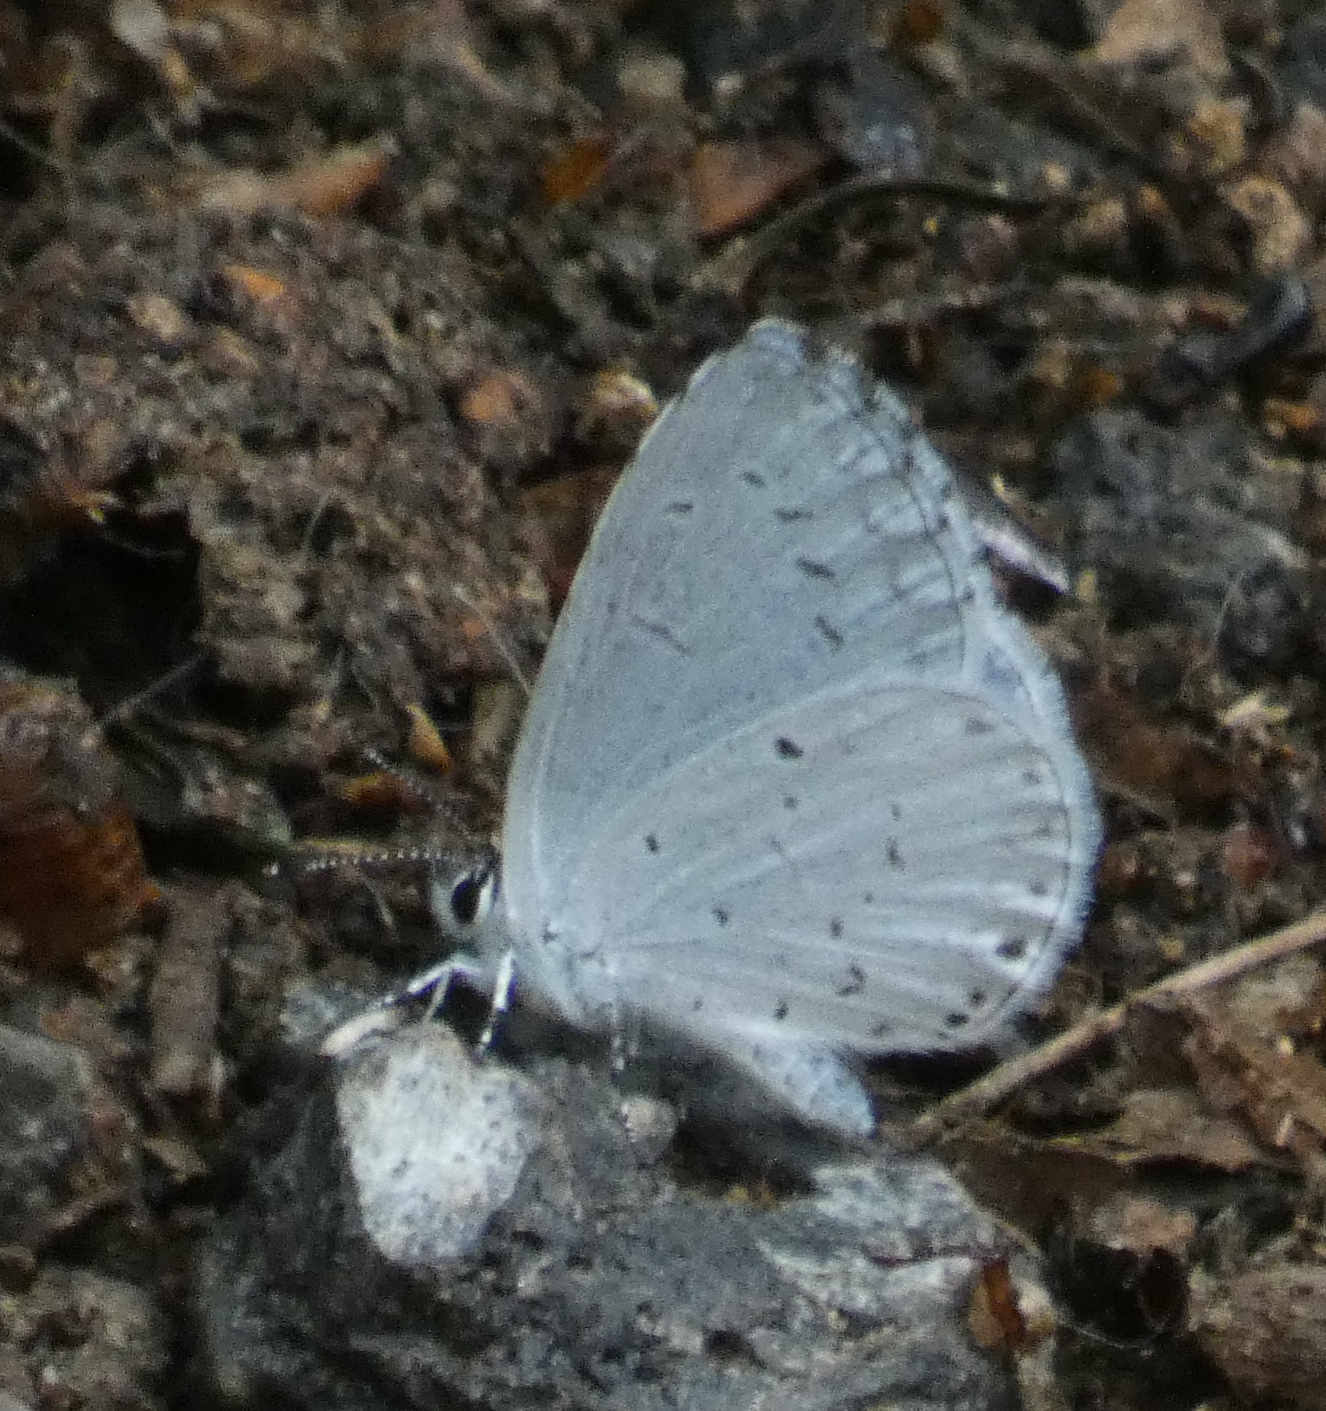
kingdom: Animalia
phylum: Arthropoda
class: Insecta
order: Lepidoptera
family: Lycaenidae
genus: Cyaniris
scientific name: Cyaniris neglecta
